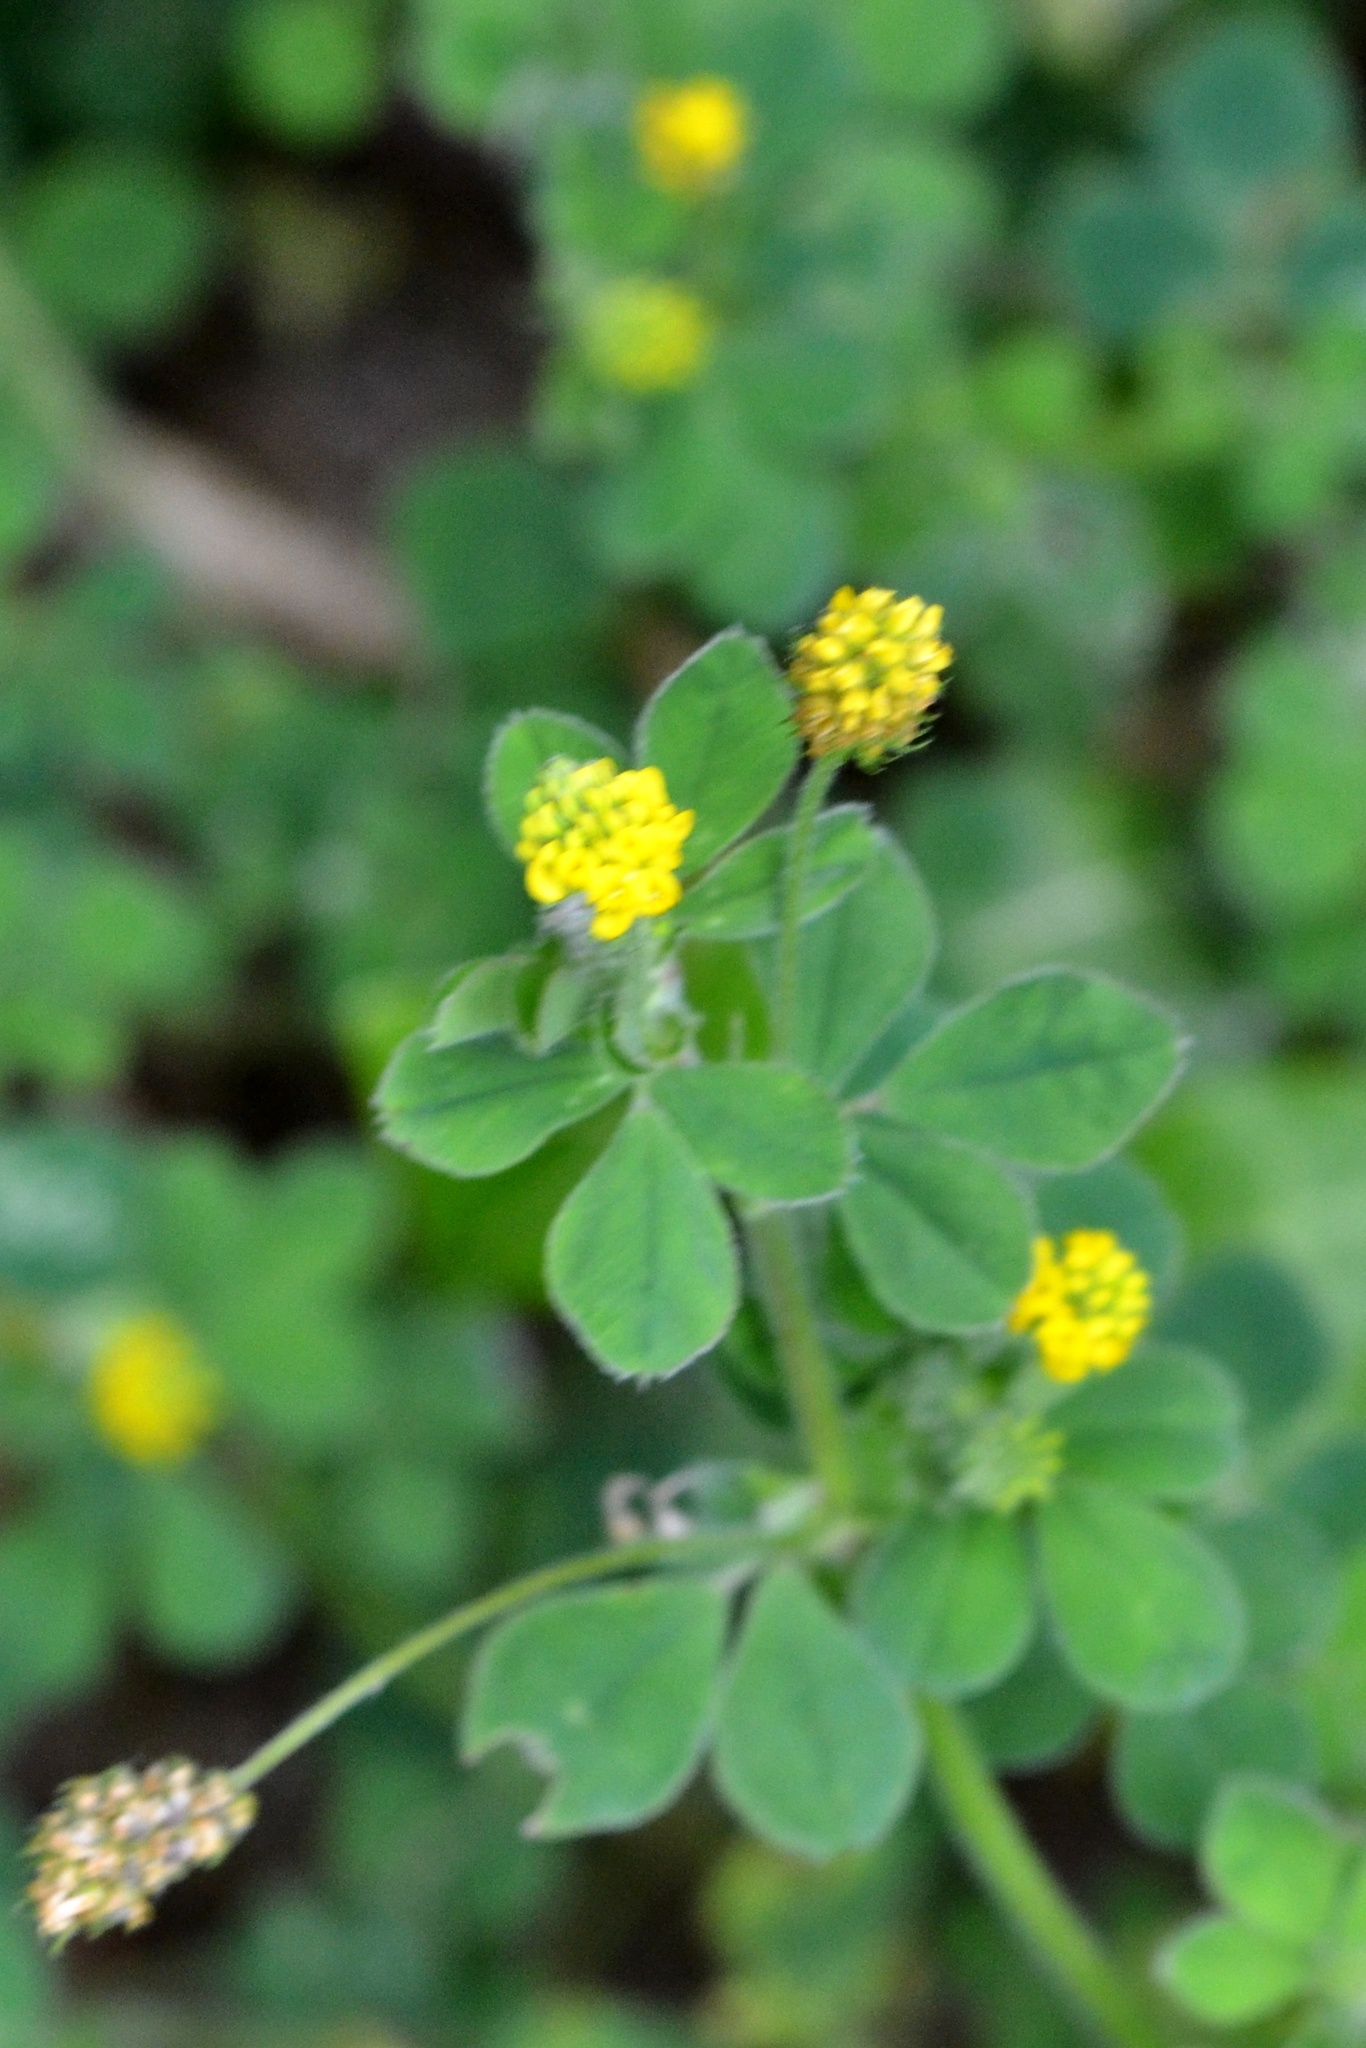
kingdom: Plantae
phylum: Tracheophyta
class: Magnoliopsida
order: Fabales
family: Fabaceae
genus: Medicago
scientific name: Medicago lupulina
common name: Black medick
